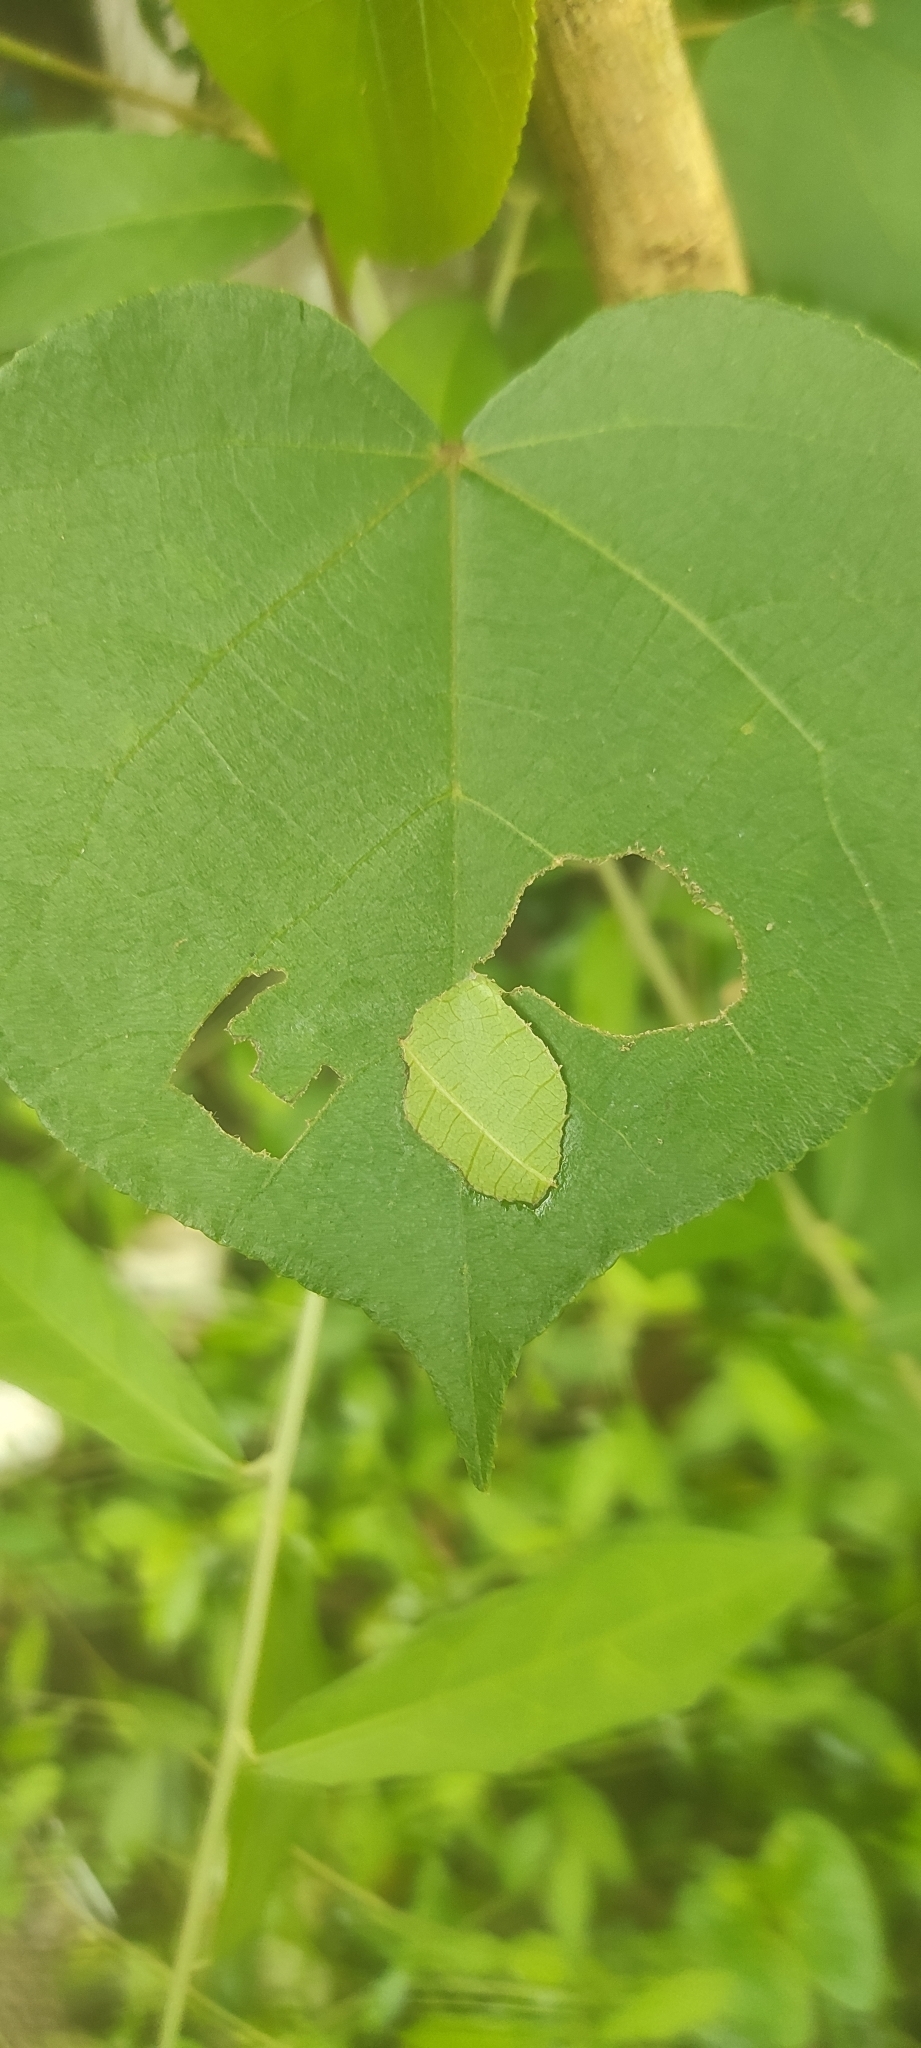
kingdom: Animalia
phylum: Arthropoda
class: Insecta
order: Lepidoptera
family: Hesperiidae
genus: Coladenia
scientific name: Coladenia
